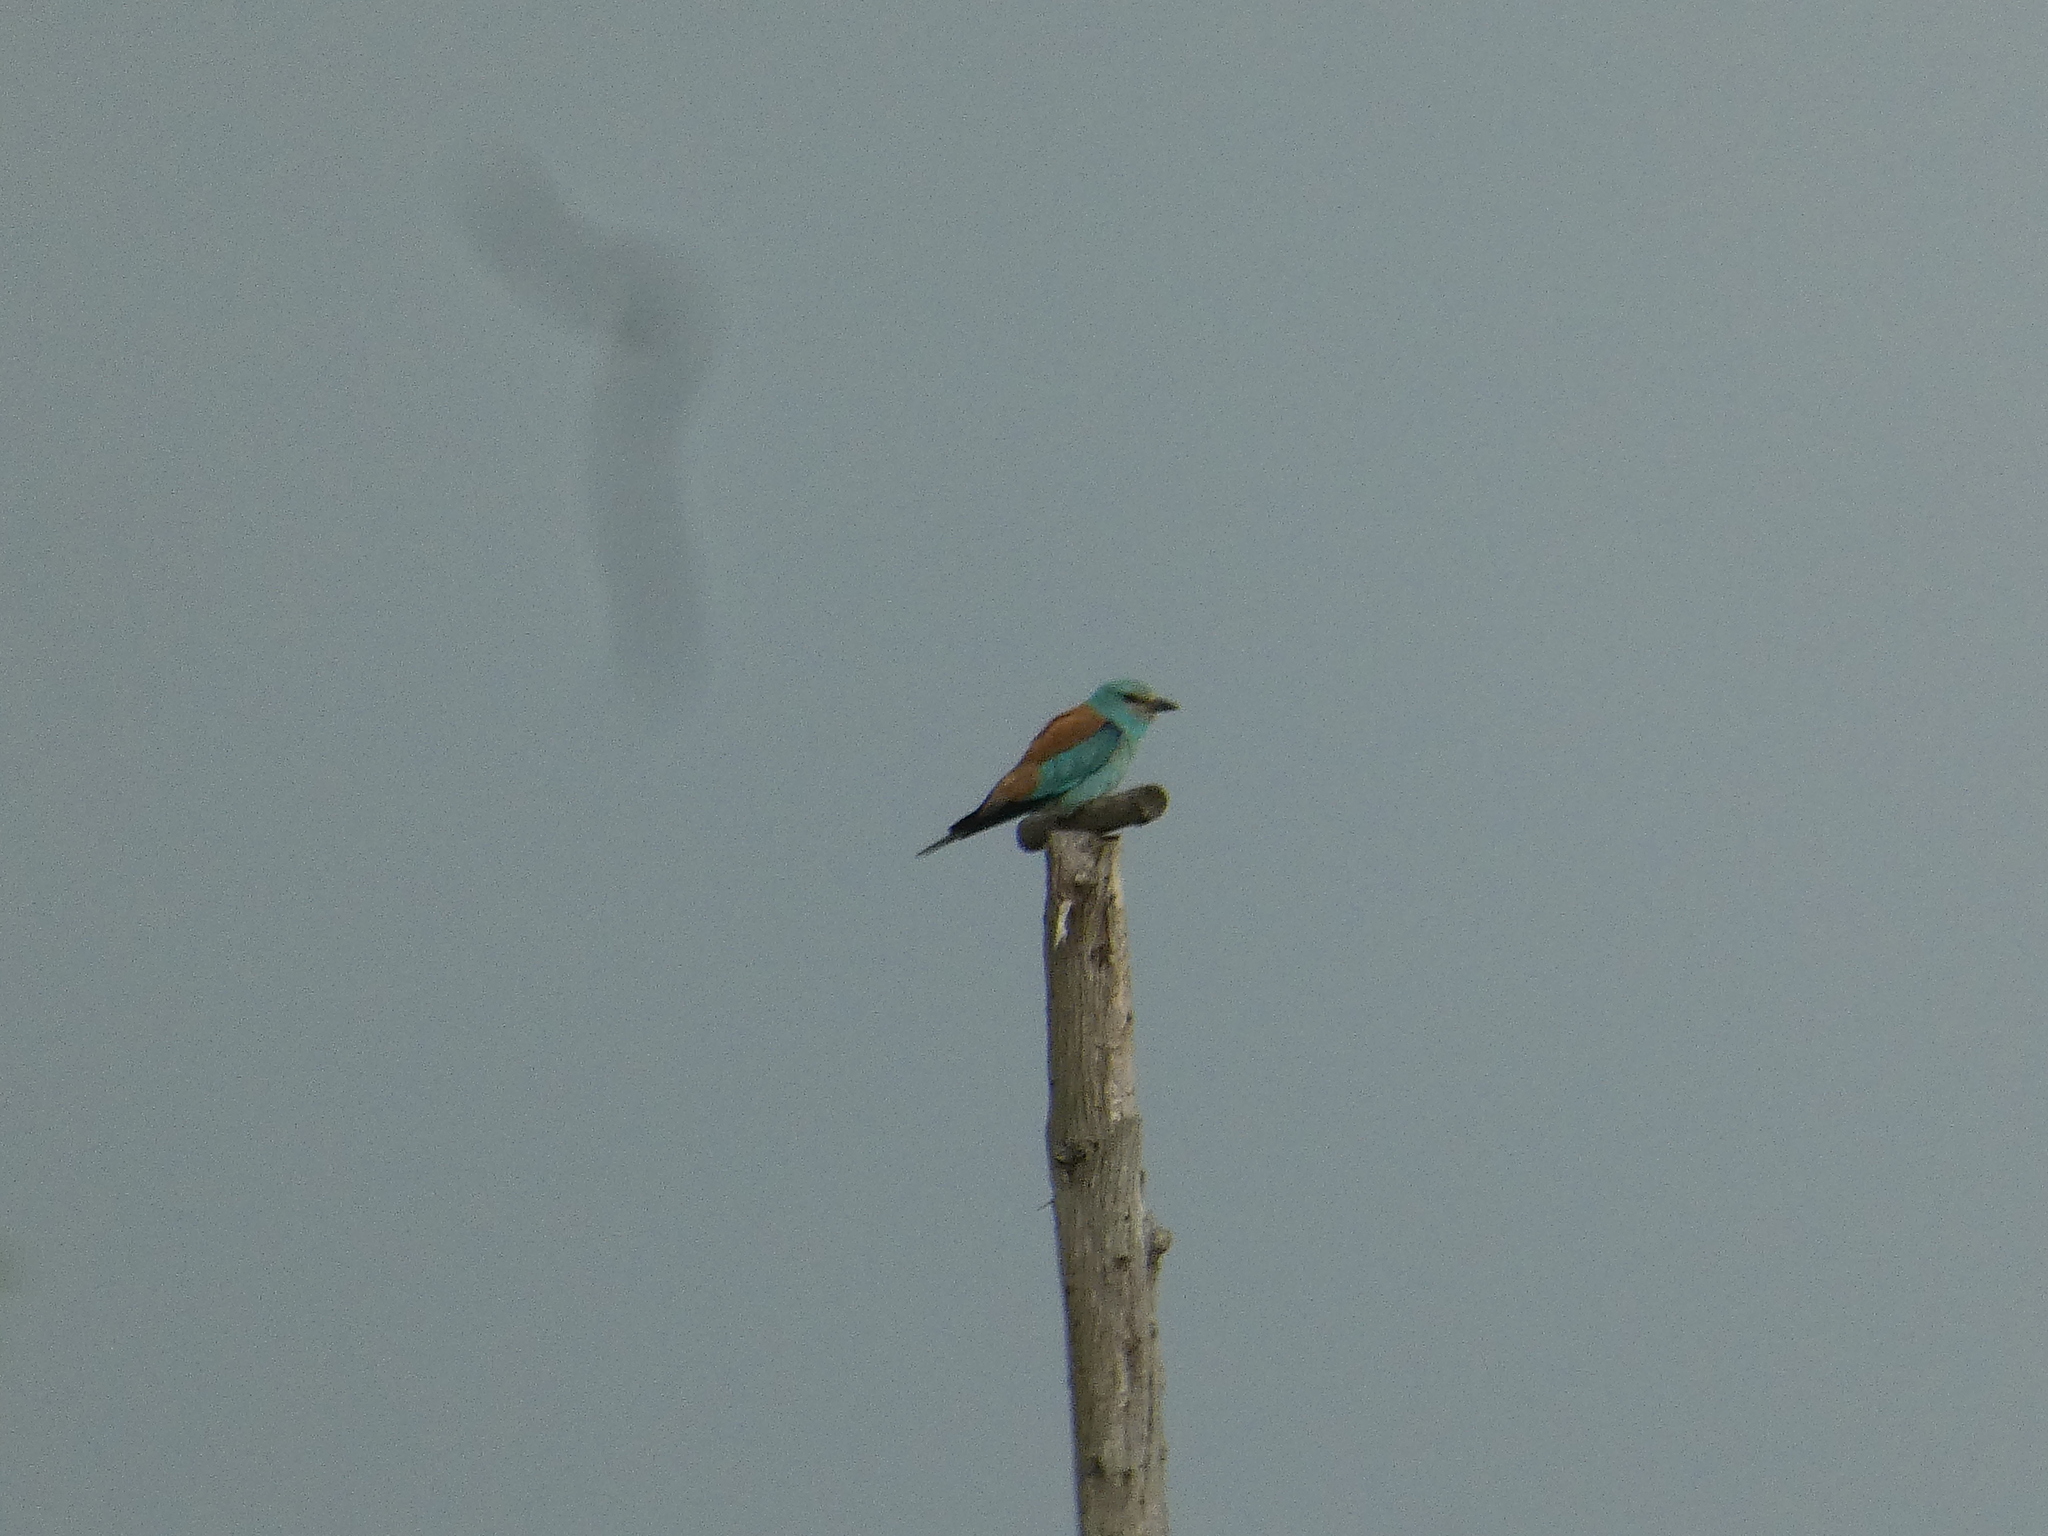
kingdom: Animalia
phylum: Chordata
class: Aves
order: Coraciiformes
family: Coraciidae
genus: Coracias
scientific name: Coracias garrulus
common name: European roller
